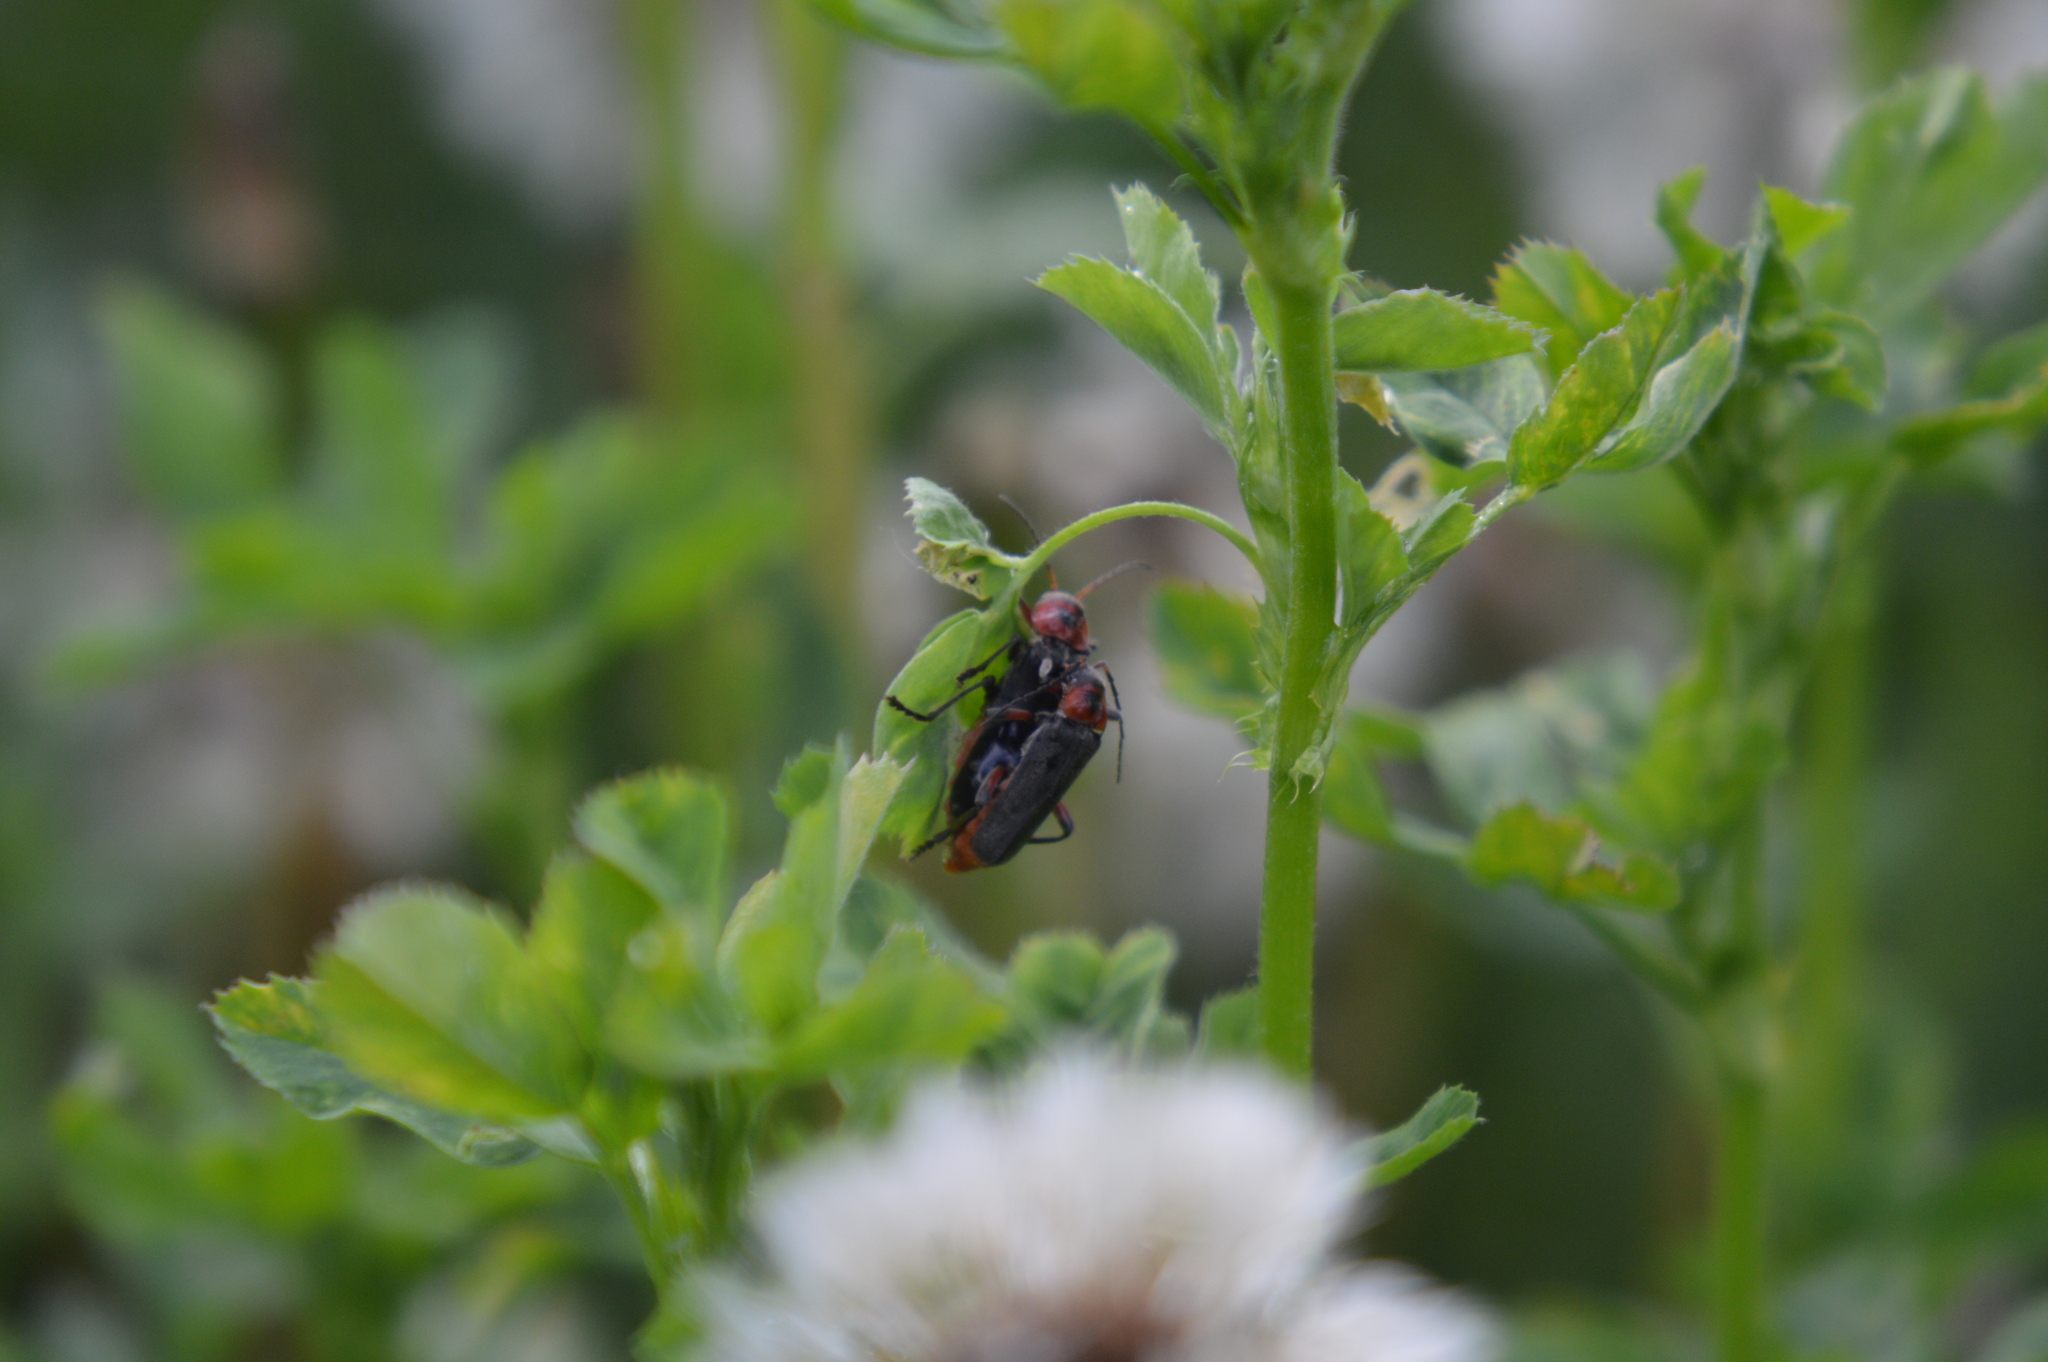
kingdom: Animalia
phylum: Arthropoda
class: Insecta
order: Coleoptera
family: Cantharidae
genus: Cantharis
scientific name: Cantharis rustica
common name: Soldier beetle
